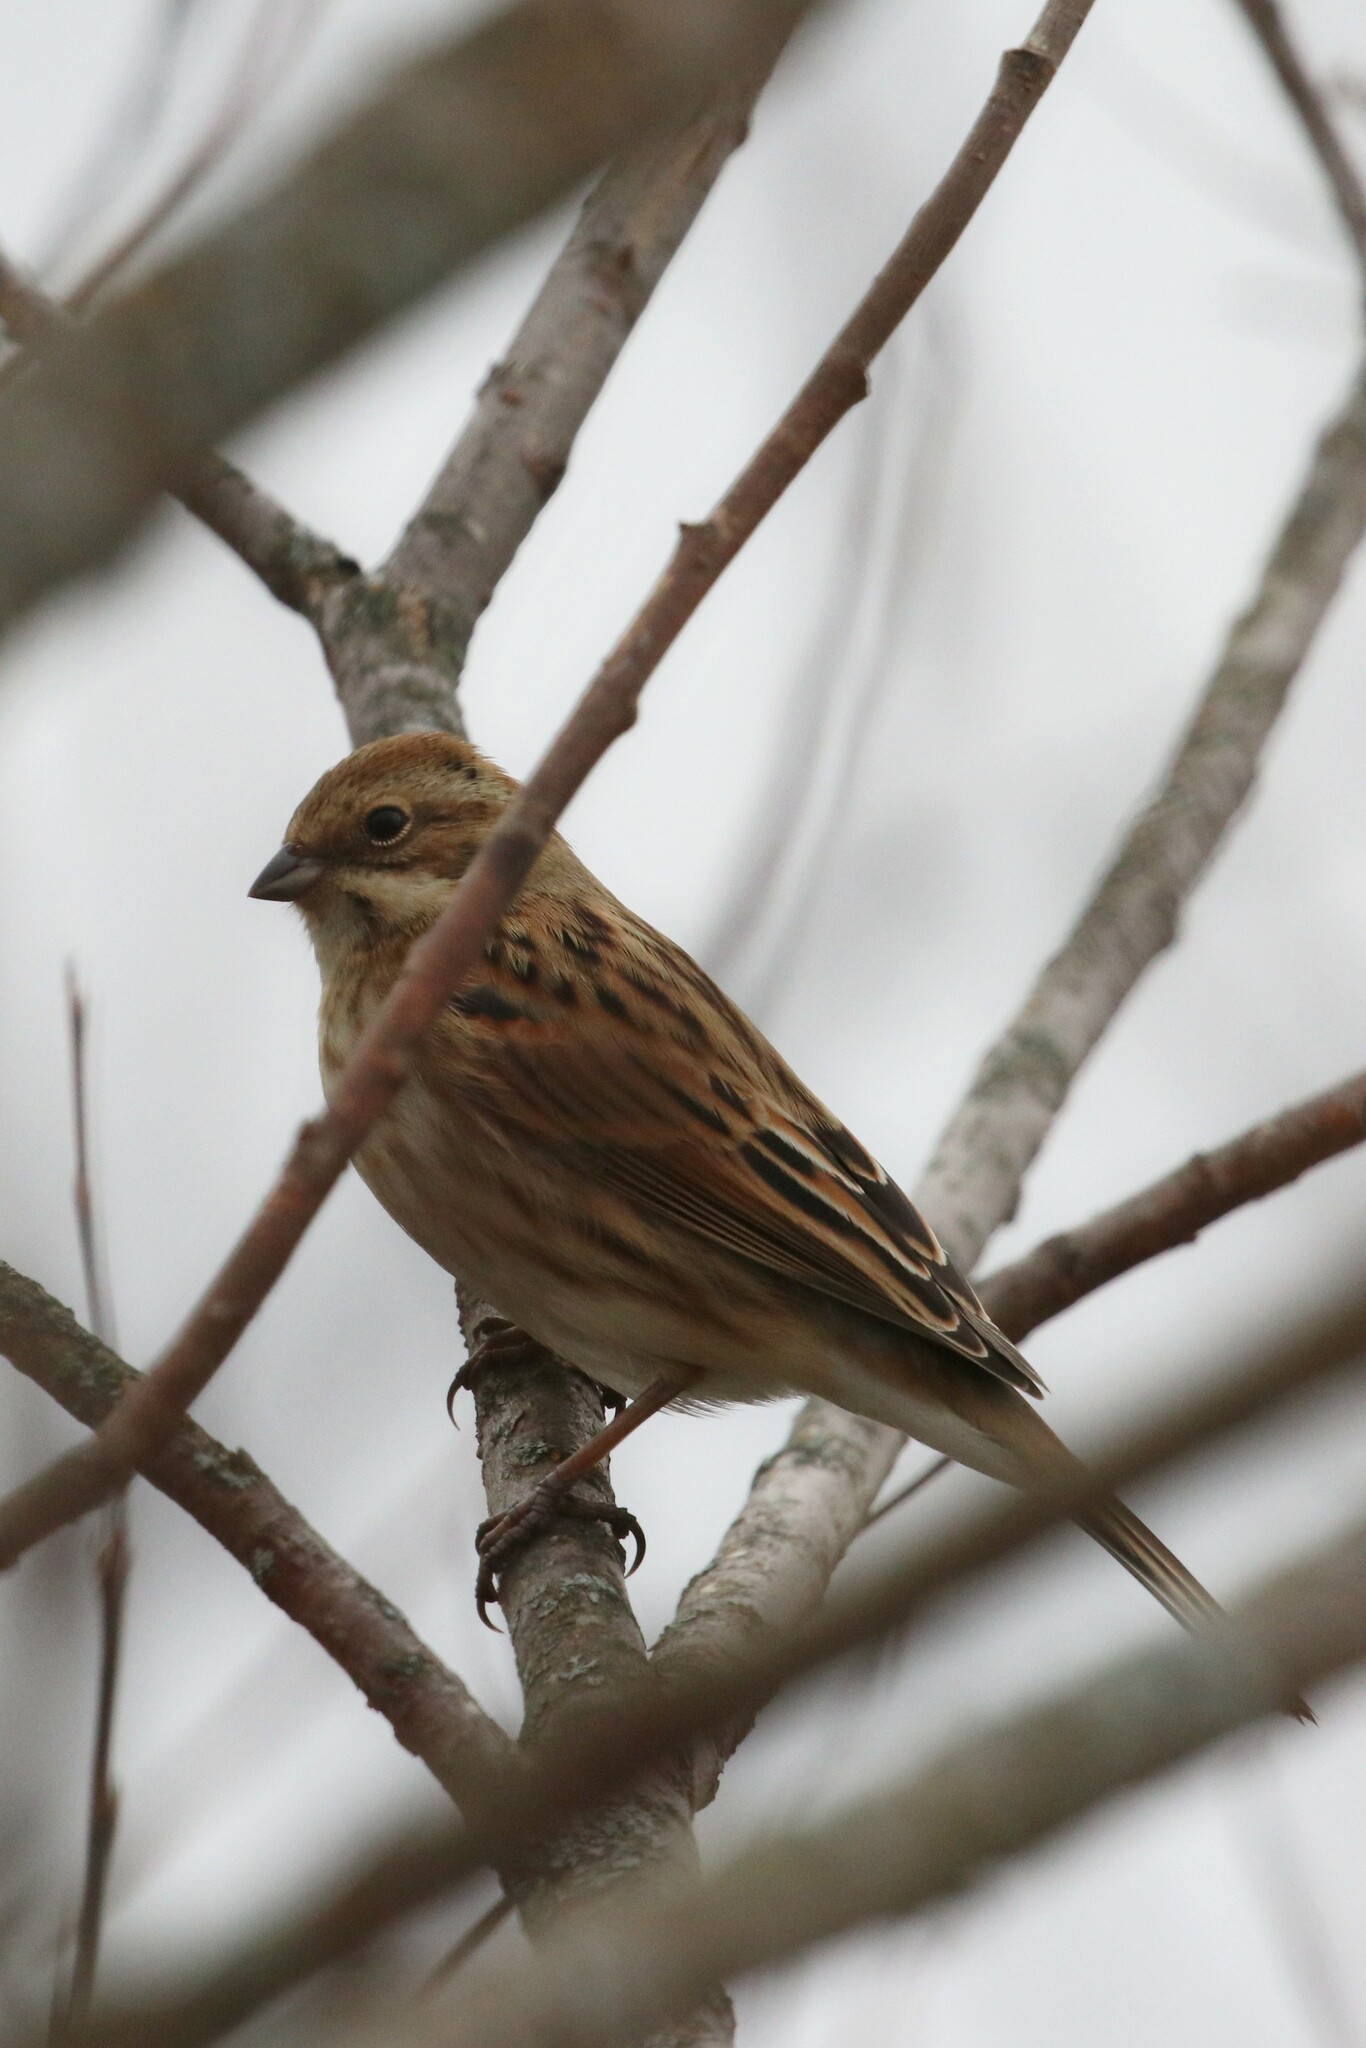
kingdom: Animalia
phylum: Chordata
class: Aves
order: Passeriformes
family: Emberizidae
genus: Emberiza
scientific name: Emberiza schoeniclus
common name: Reed bunting
